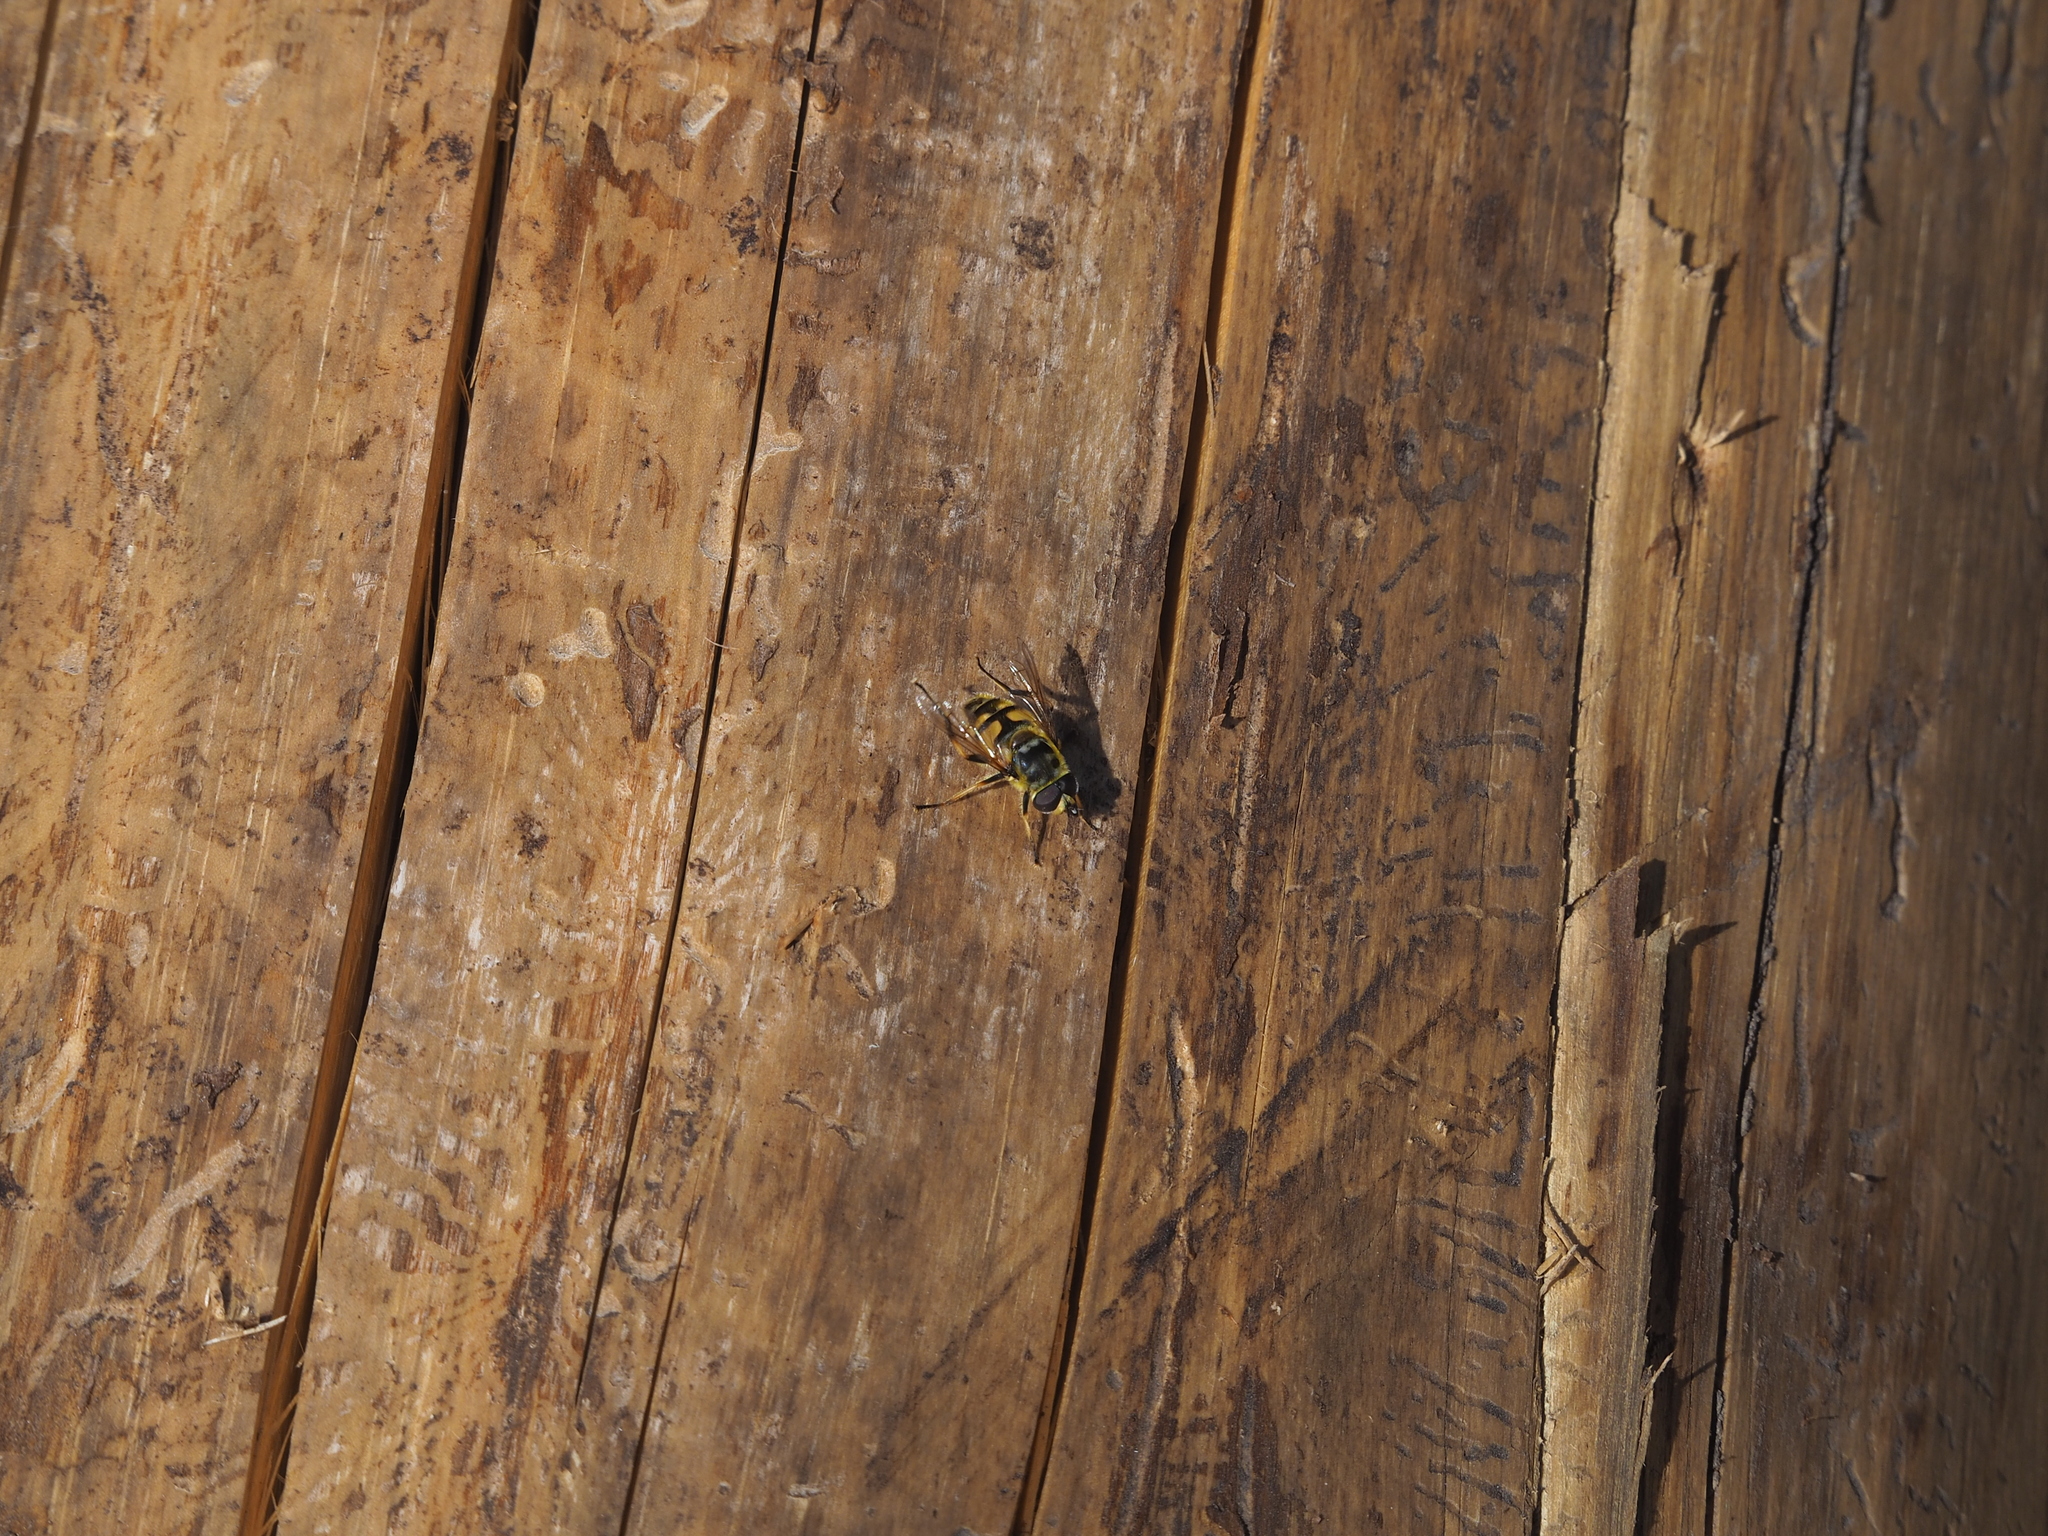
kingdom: Animalia
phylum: Arthropoda
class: Insecta
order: Diptera
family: Syrphidae
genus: Myathropa
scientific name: Myathropa florea
